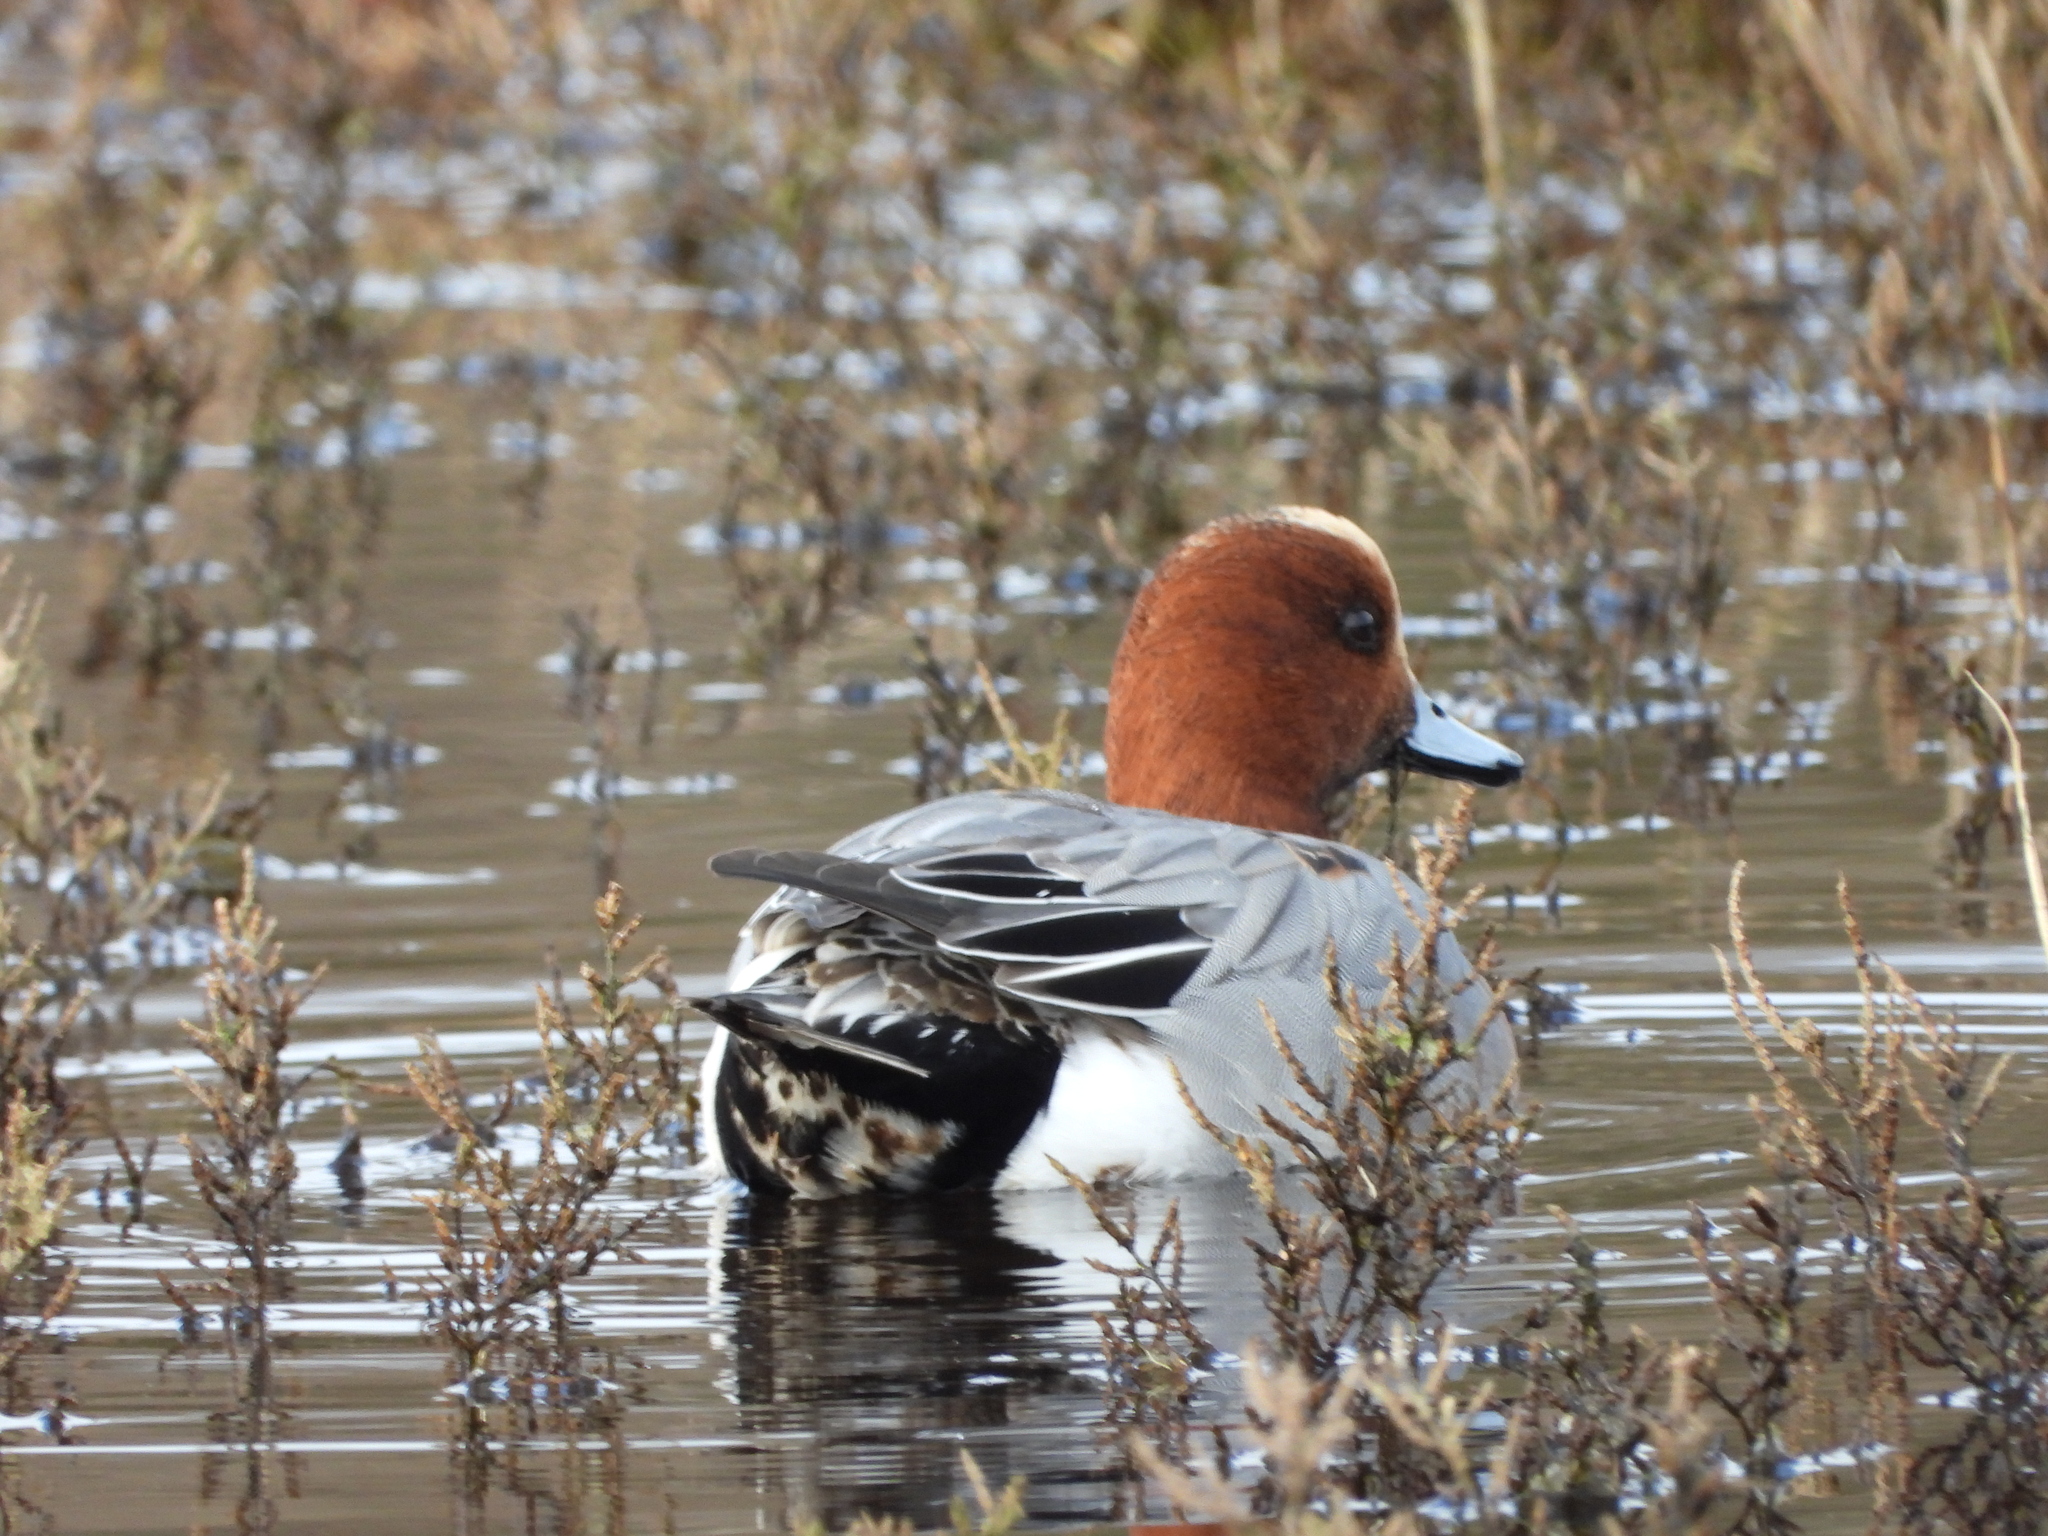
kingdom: Animalia
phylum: Chordata
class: Aves
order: Anseriformes
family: Anatidae
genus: Mareca
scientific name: Mareca penelope
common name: Eurasian wigeon
